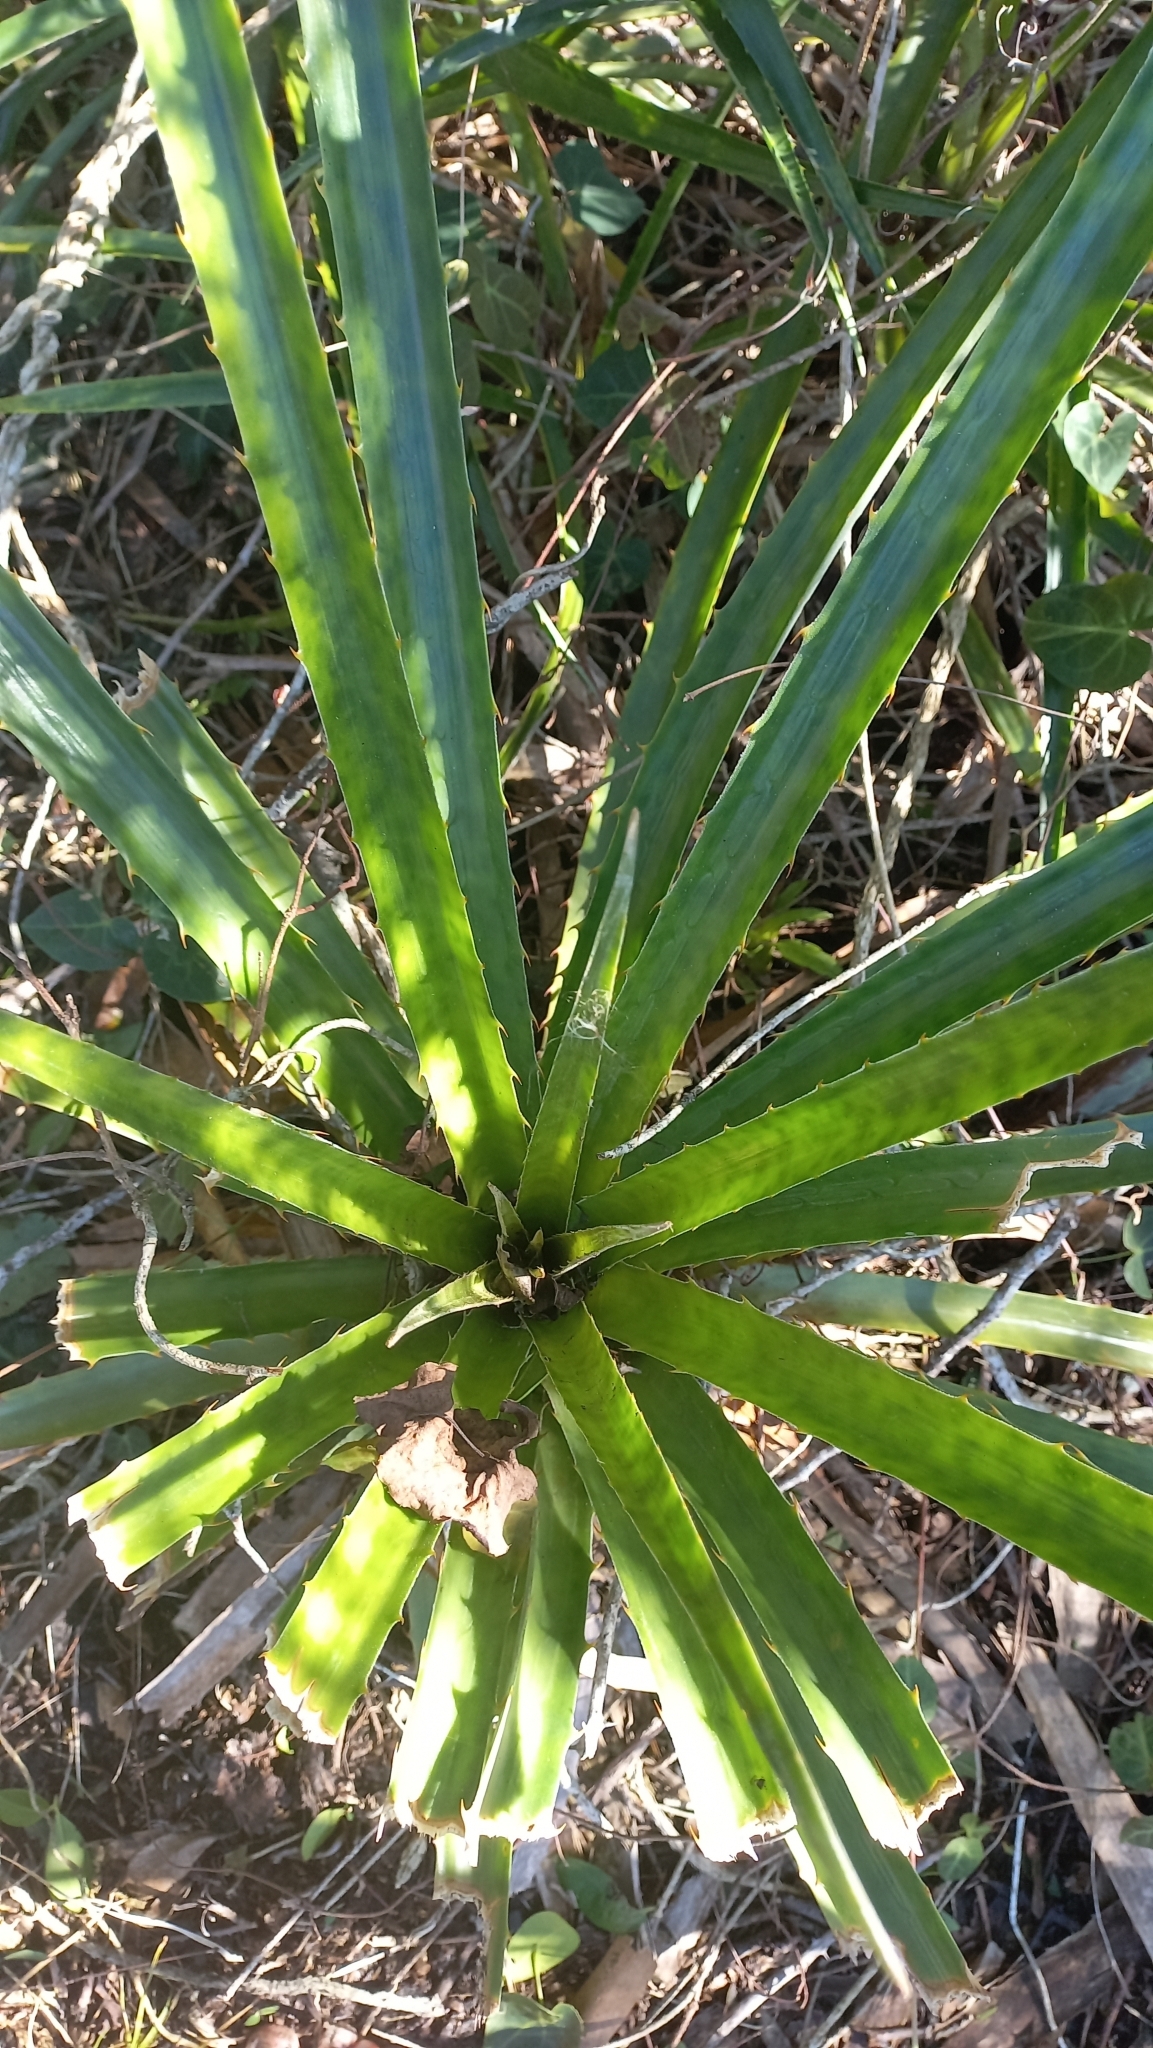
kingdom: Plantae
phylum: Tracheophyta
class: Liliopsida
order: Poales
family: Bromeliaceae
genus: Bromelia
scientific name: Bromelia antiacantha
